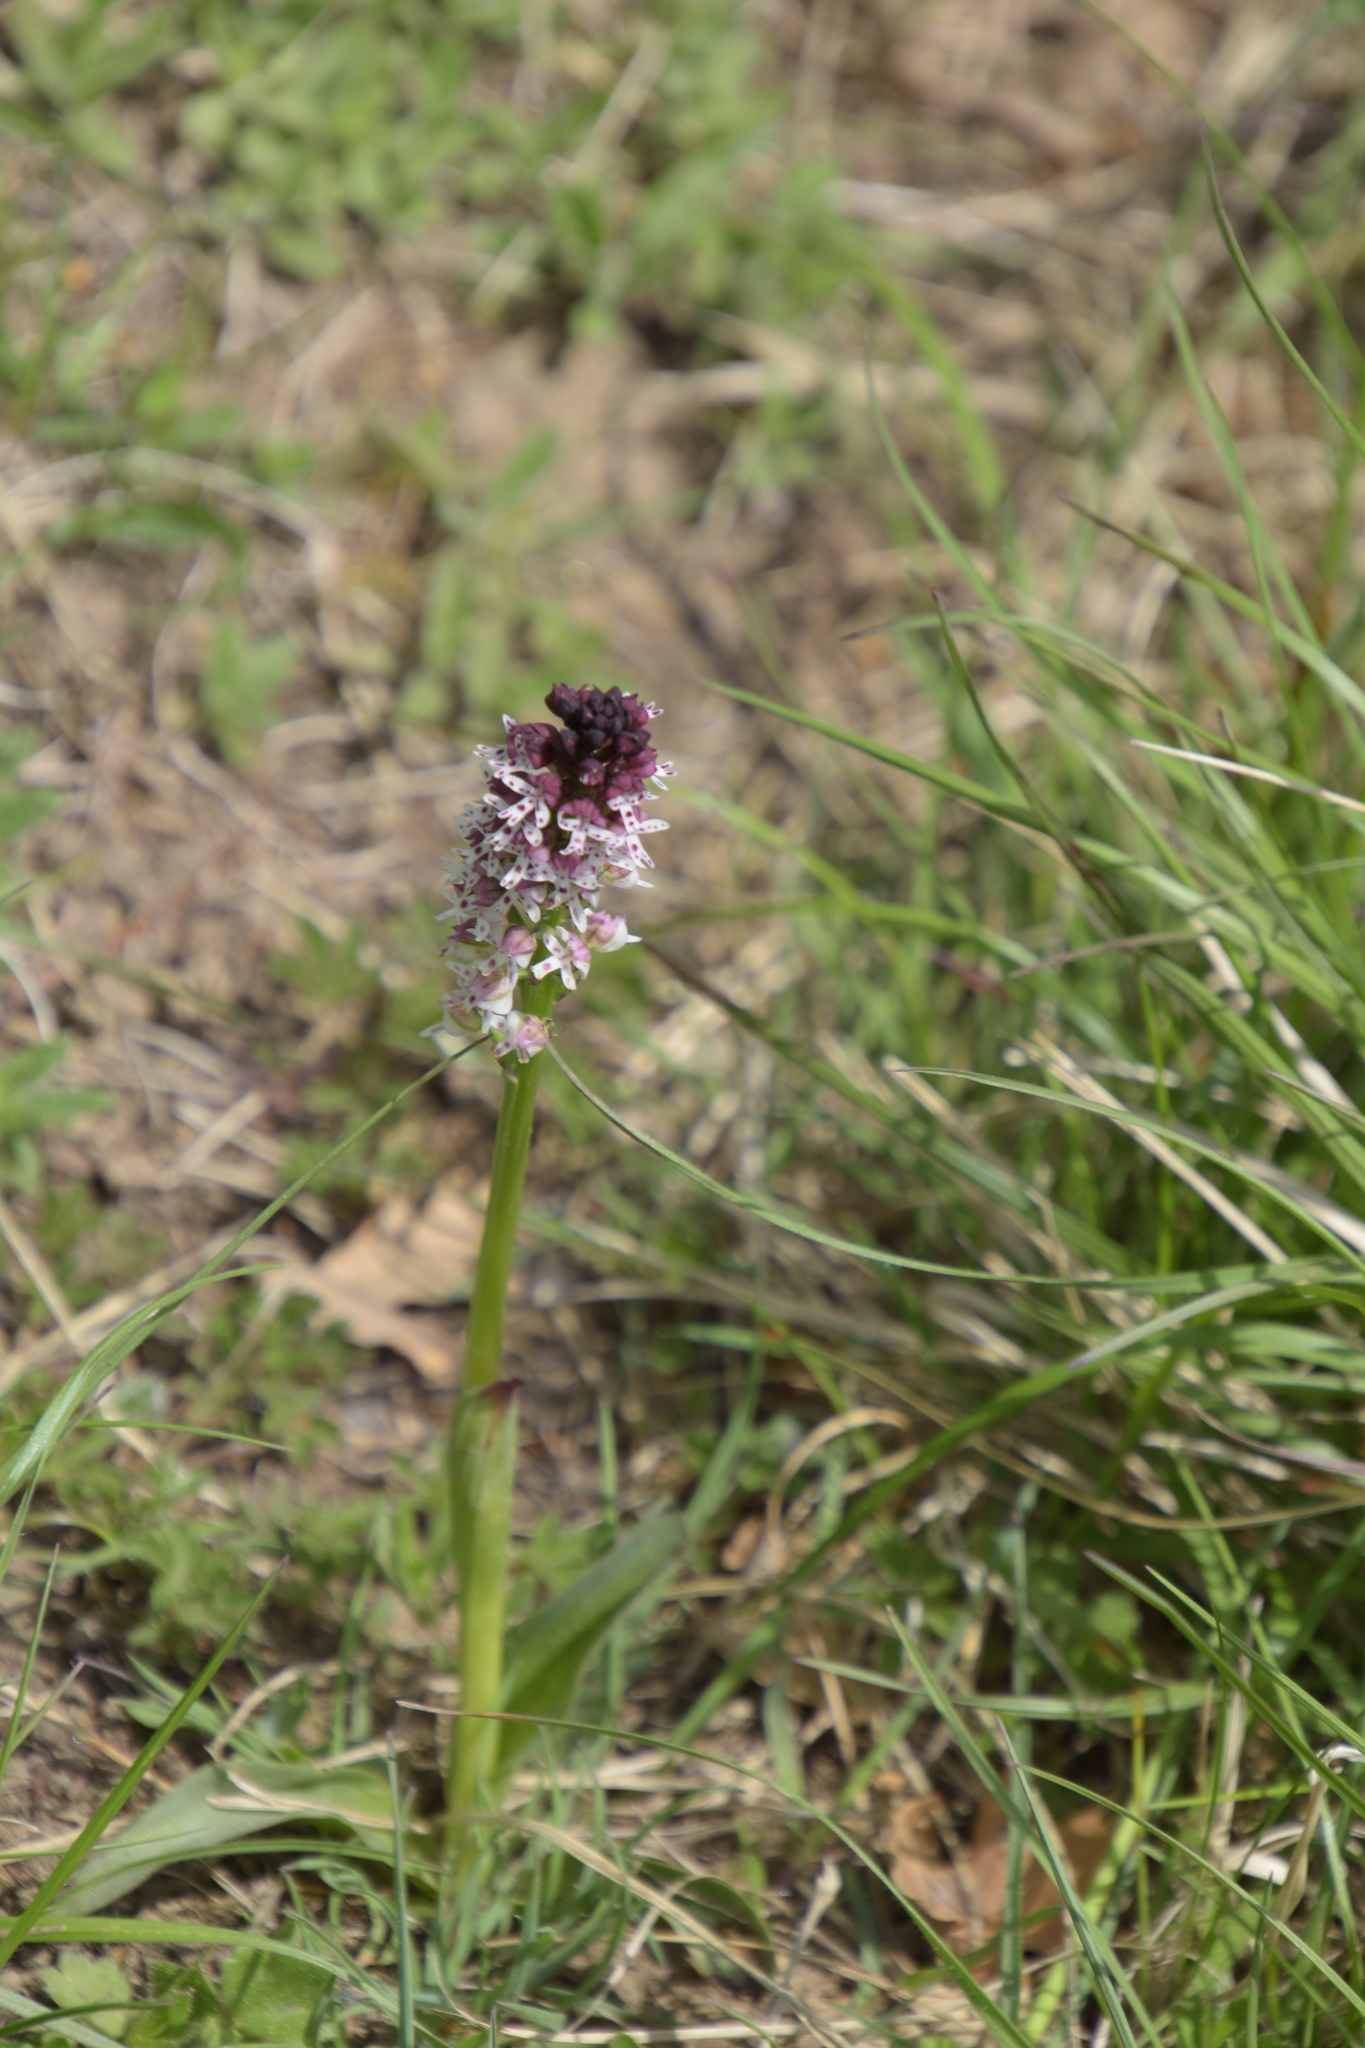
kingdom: Plantae
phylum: Tracheophyta
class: Liliopsida
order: Asparagales
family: Orchidaceae
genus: Neotinea
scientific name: Neotinea ustulata
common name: Burnt orchid
